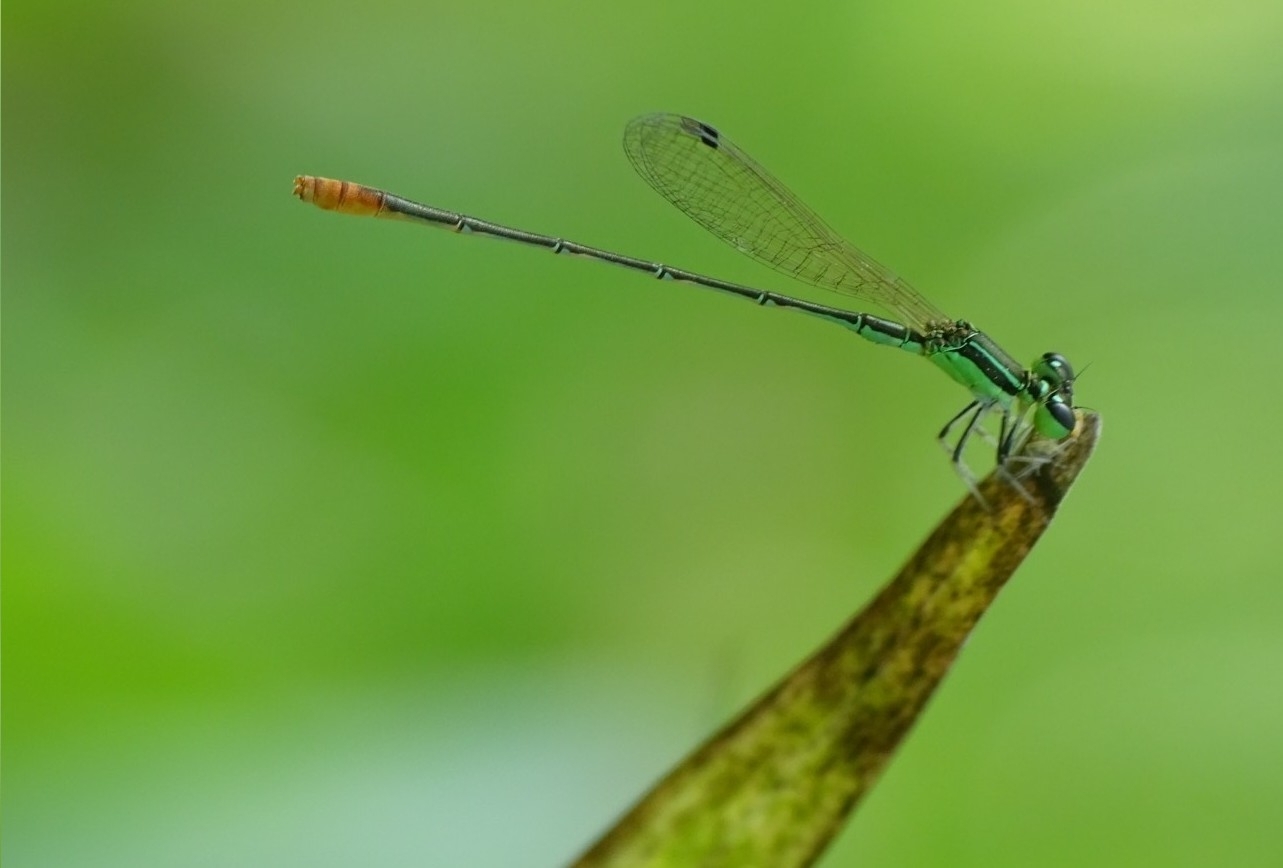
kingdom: Animalia
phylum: Arthropoda
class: Insecta
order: Odonata
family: Coenagrionidae
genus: Agriocnemis
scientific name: Agriocnemis pygmaea
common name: Pygmy wisp
